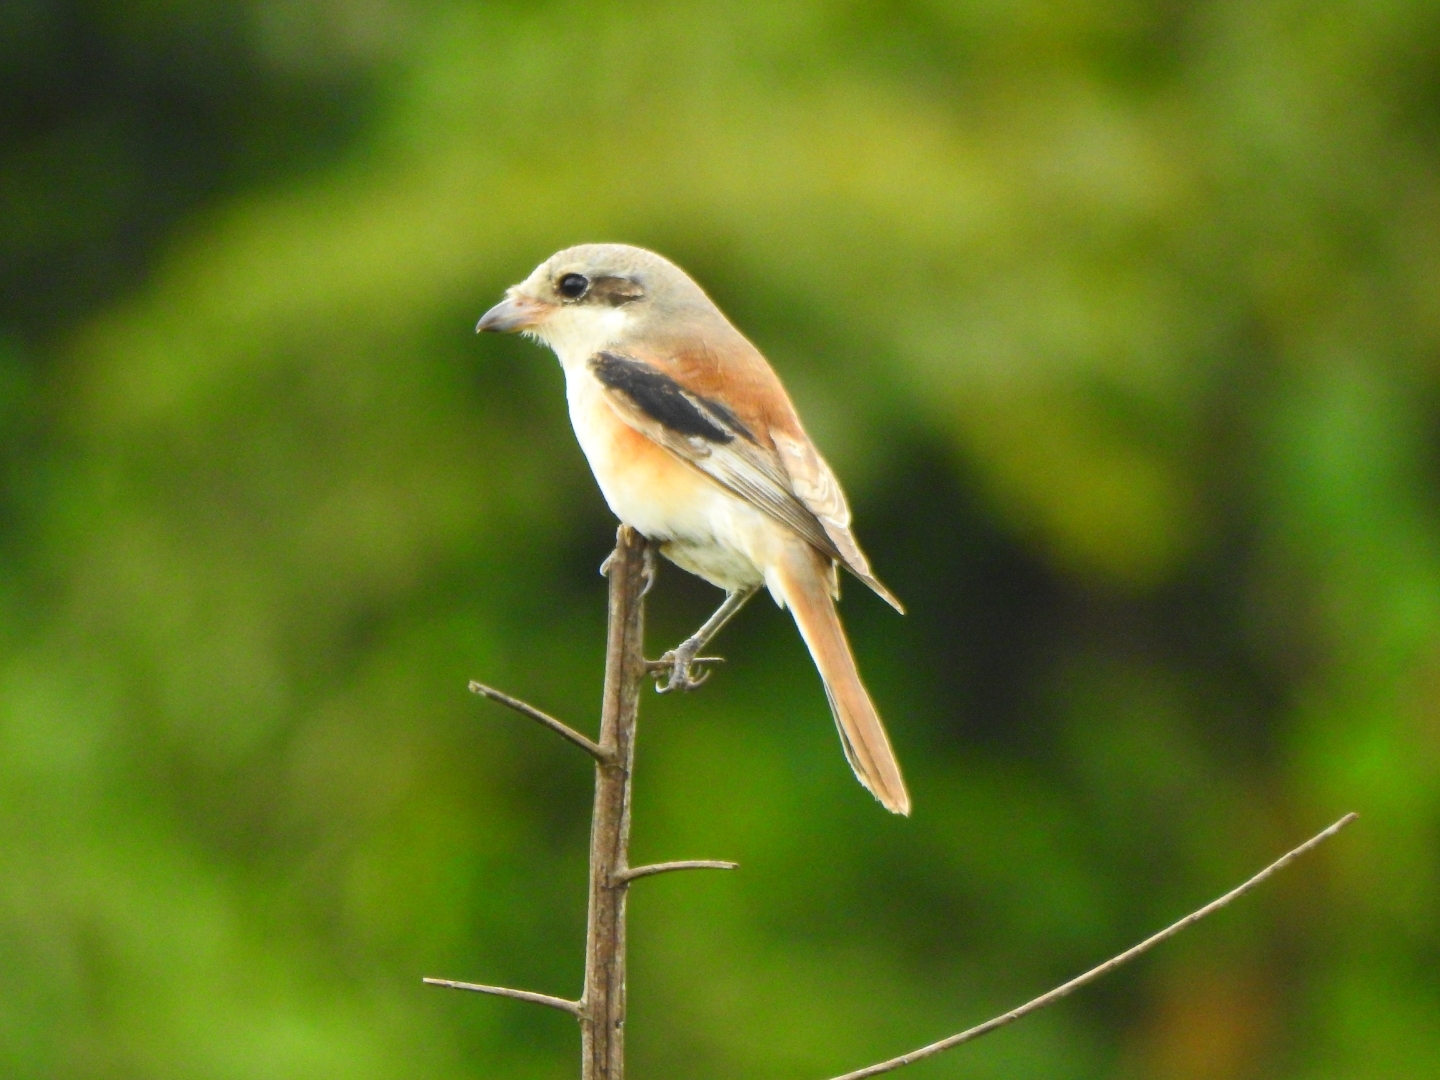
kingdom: Animalia
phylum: Chordata
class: Aves
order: Passeriformes
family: Laniidae
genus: Lanius
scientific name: Lanius vittatus
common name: Bay-backed shrike
